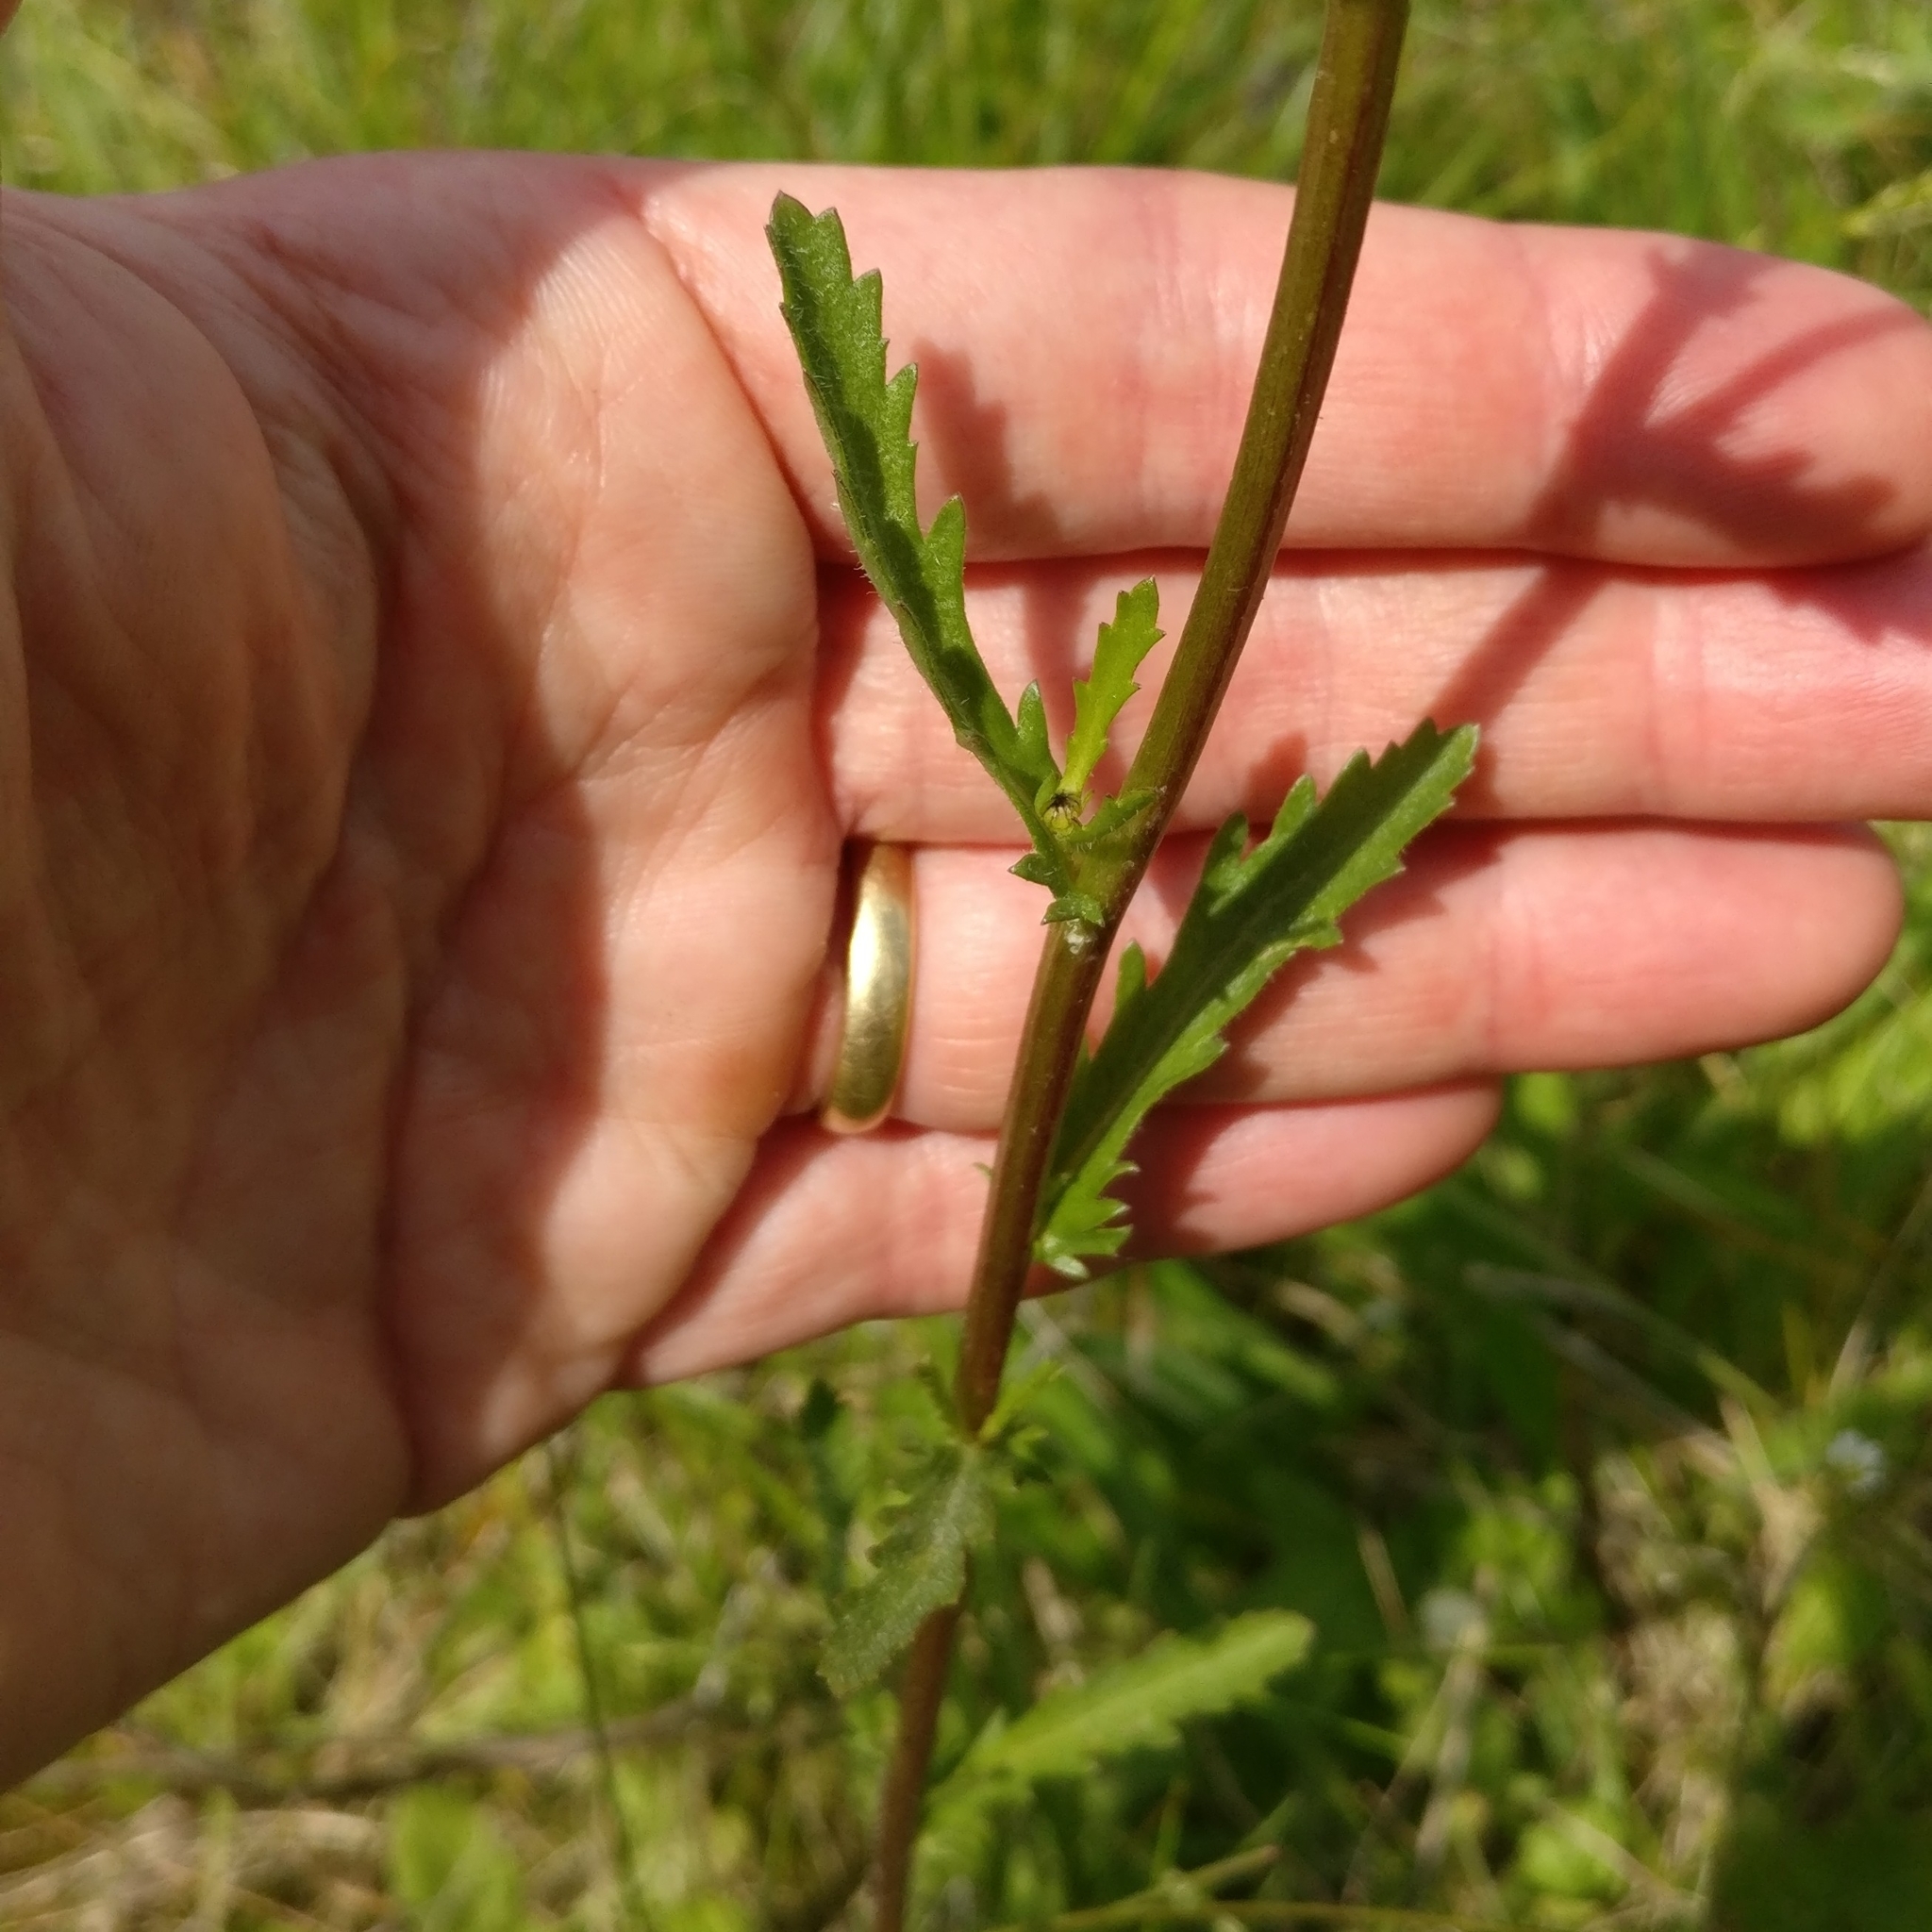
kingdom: Plantae
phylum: Tracheophyta
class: Magnoliopsida
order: Asterales
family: Asteraceae
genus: Leucanthemum
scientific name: Leucanthemum vulgare
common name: Oxeye daisy
